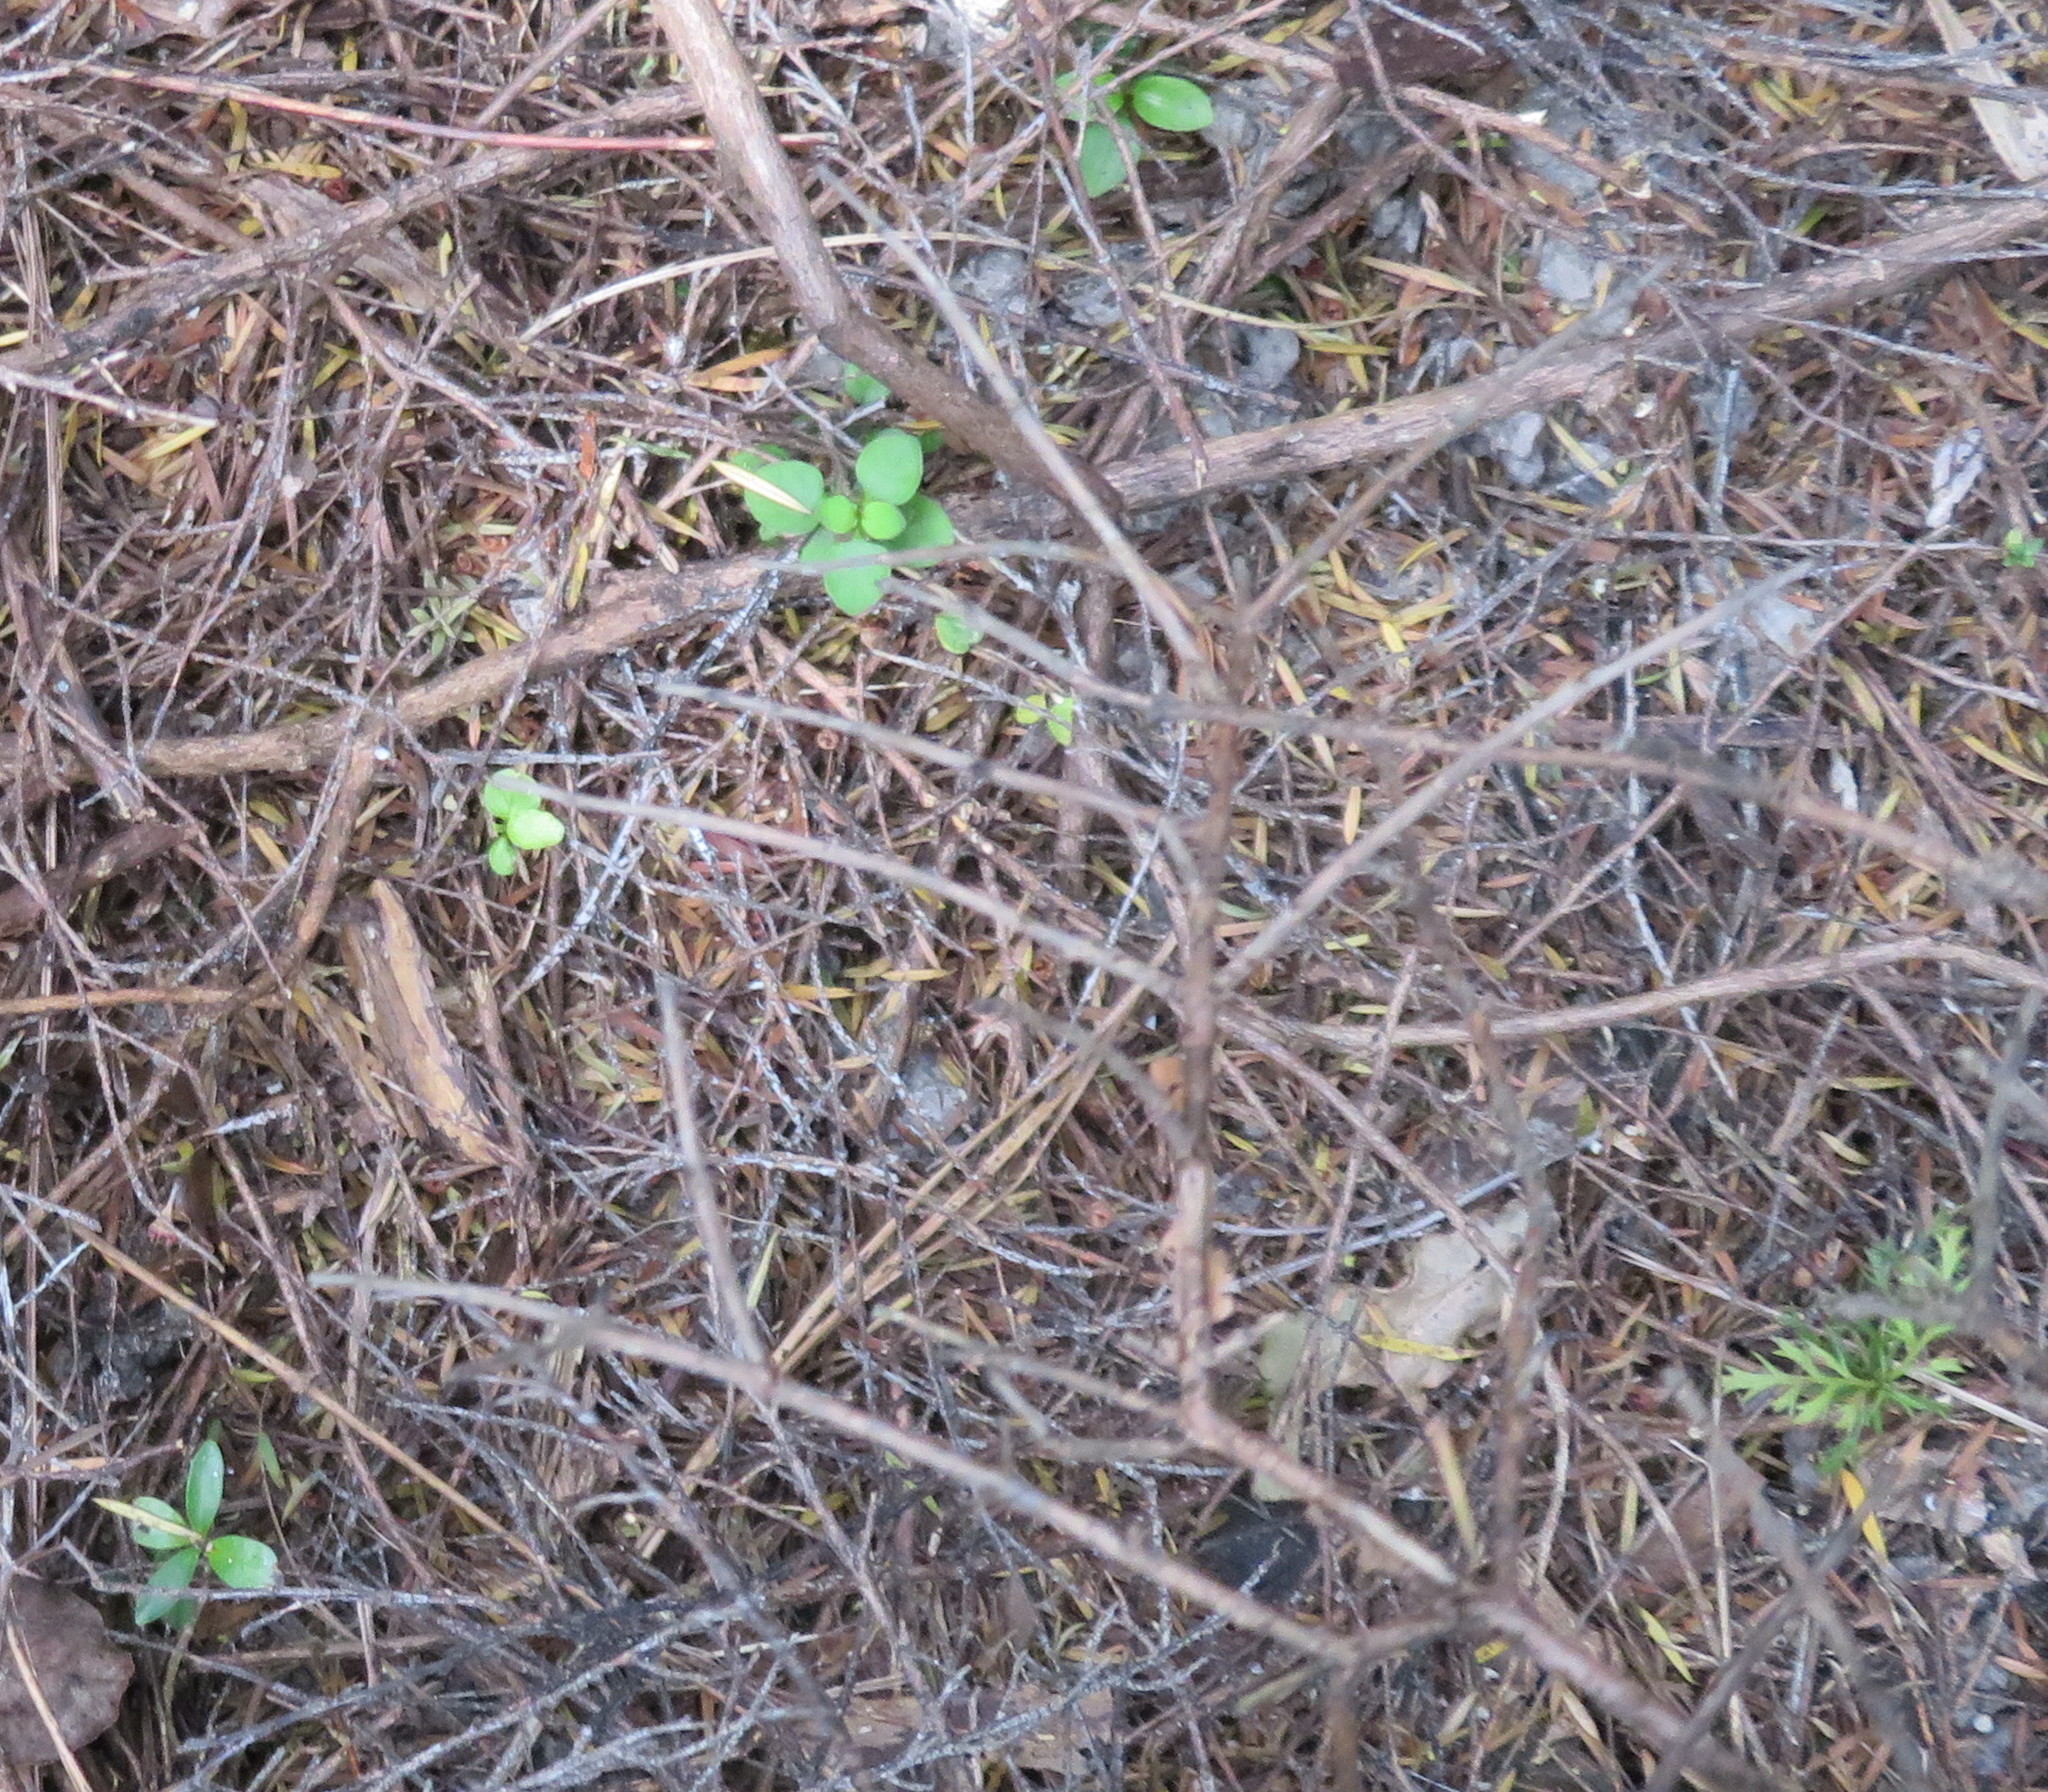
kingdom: Plantae
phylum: Tracheophyta
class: Pinopsida
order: Pinales
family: Phyllocladaceae
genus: Phyllocladus
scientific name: Phyllocladus trichomanoides
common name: Celery pine
